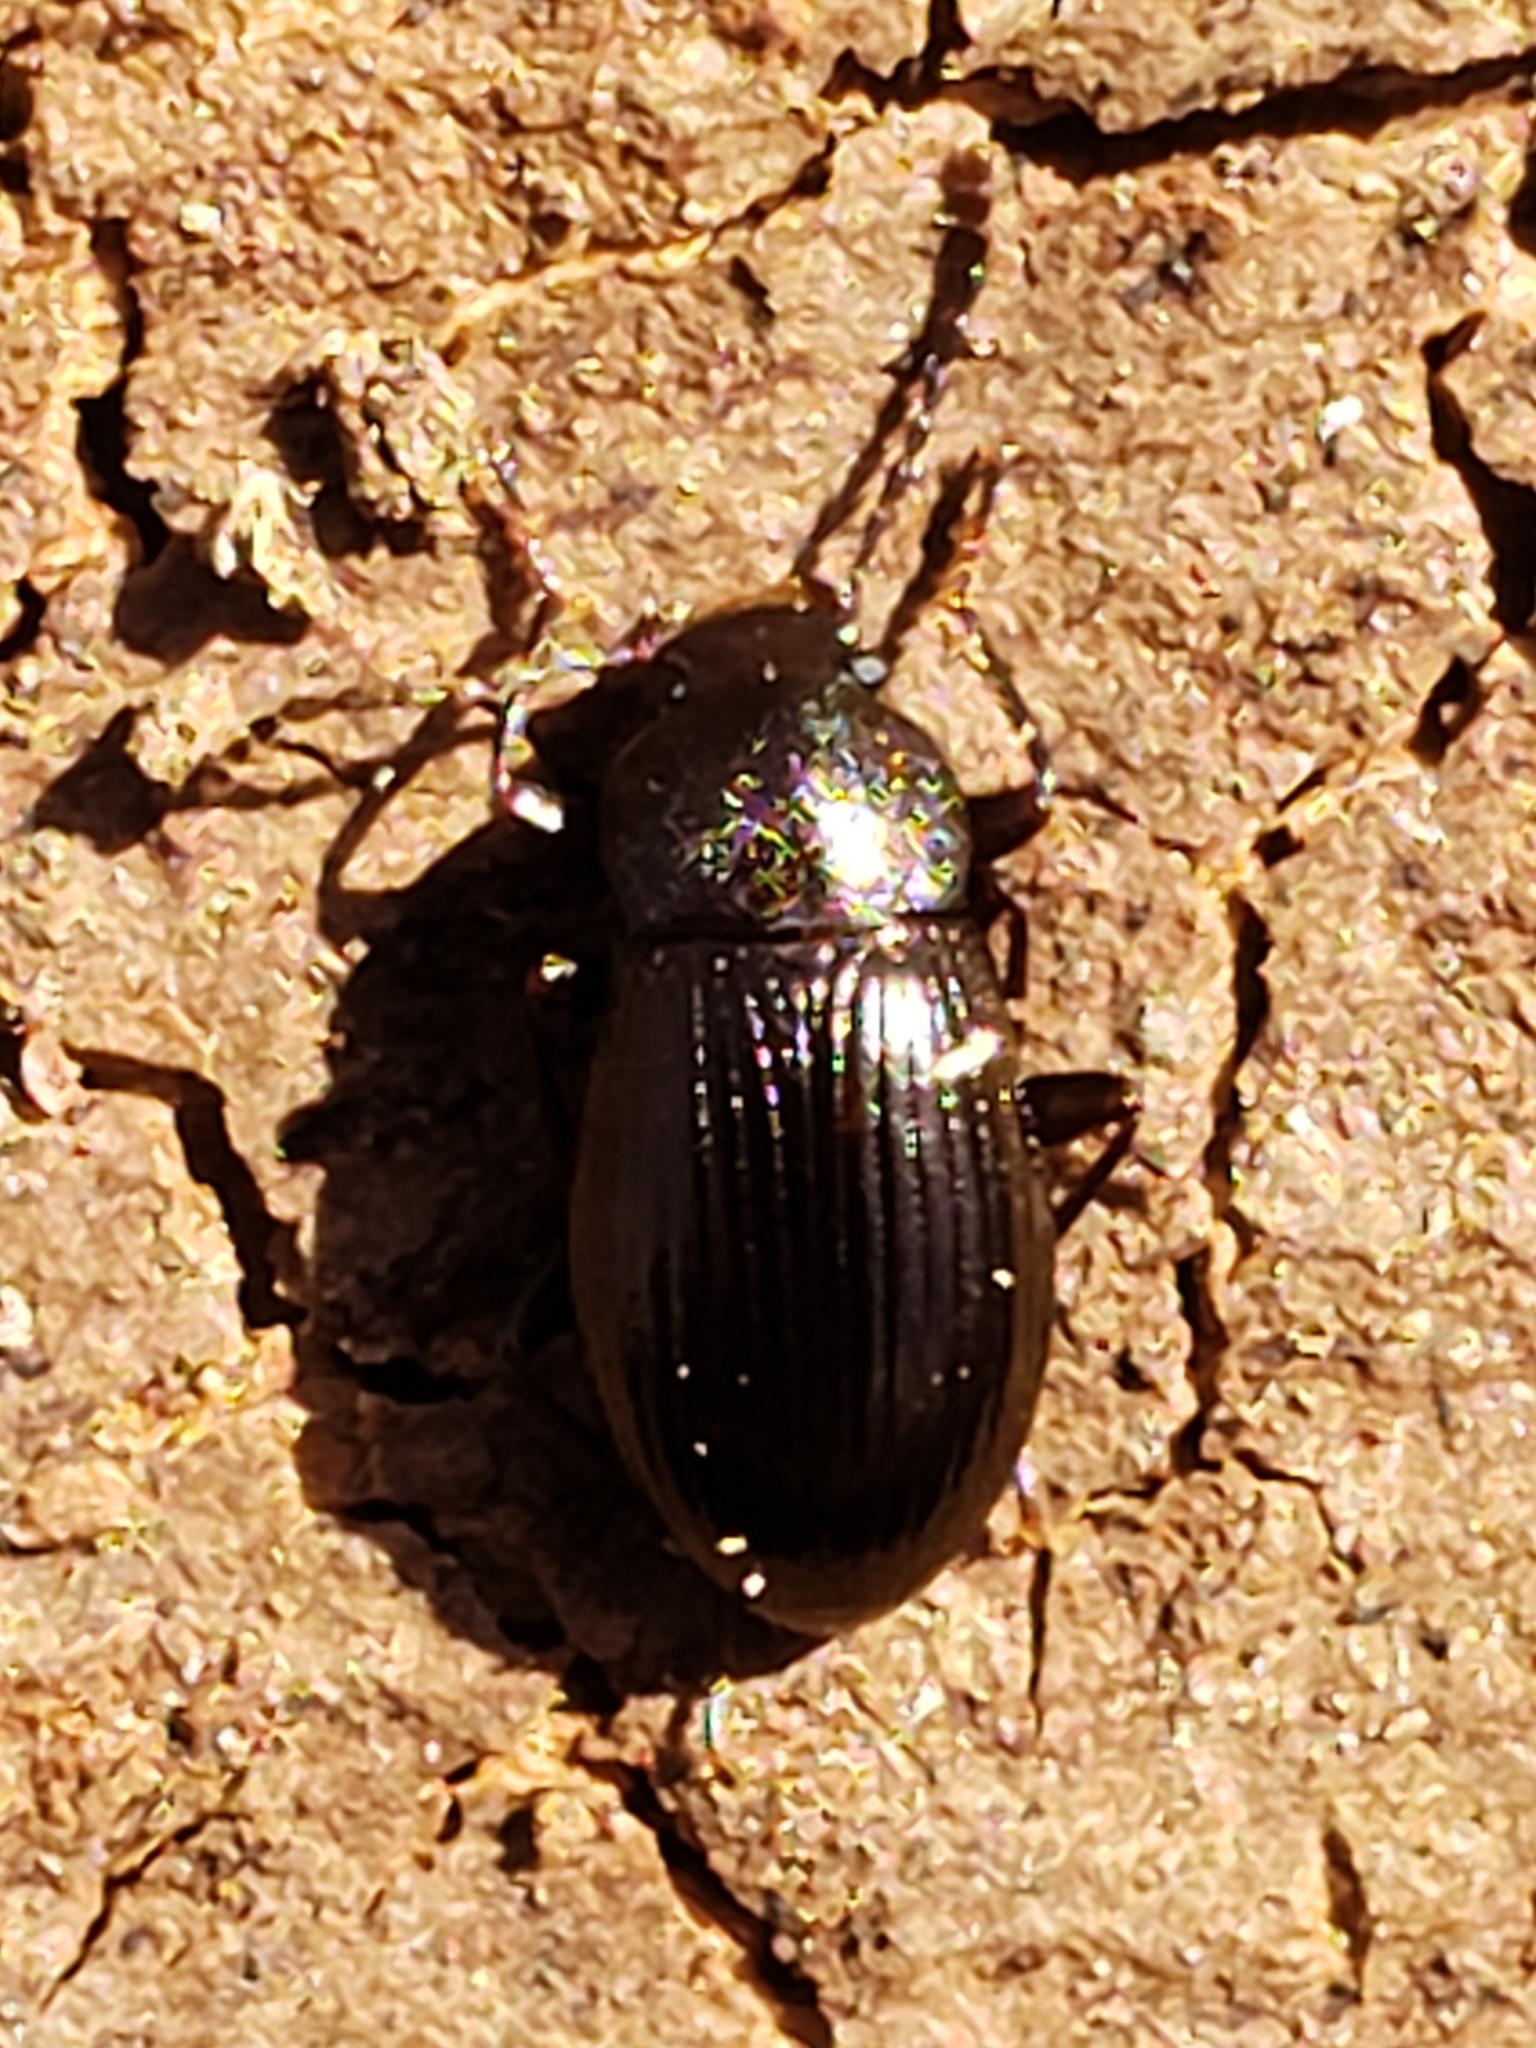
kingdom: Animalia
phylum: Arthropoda
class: Insecta
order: Coleoptera
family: Tenebrionidae
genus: Nalassus
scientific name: Nalassus aereus
